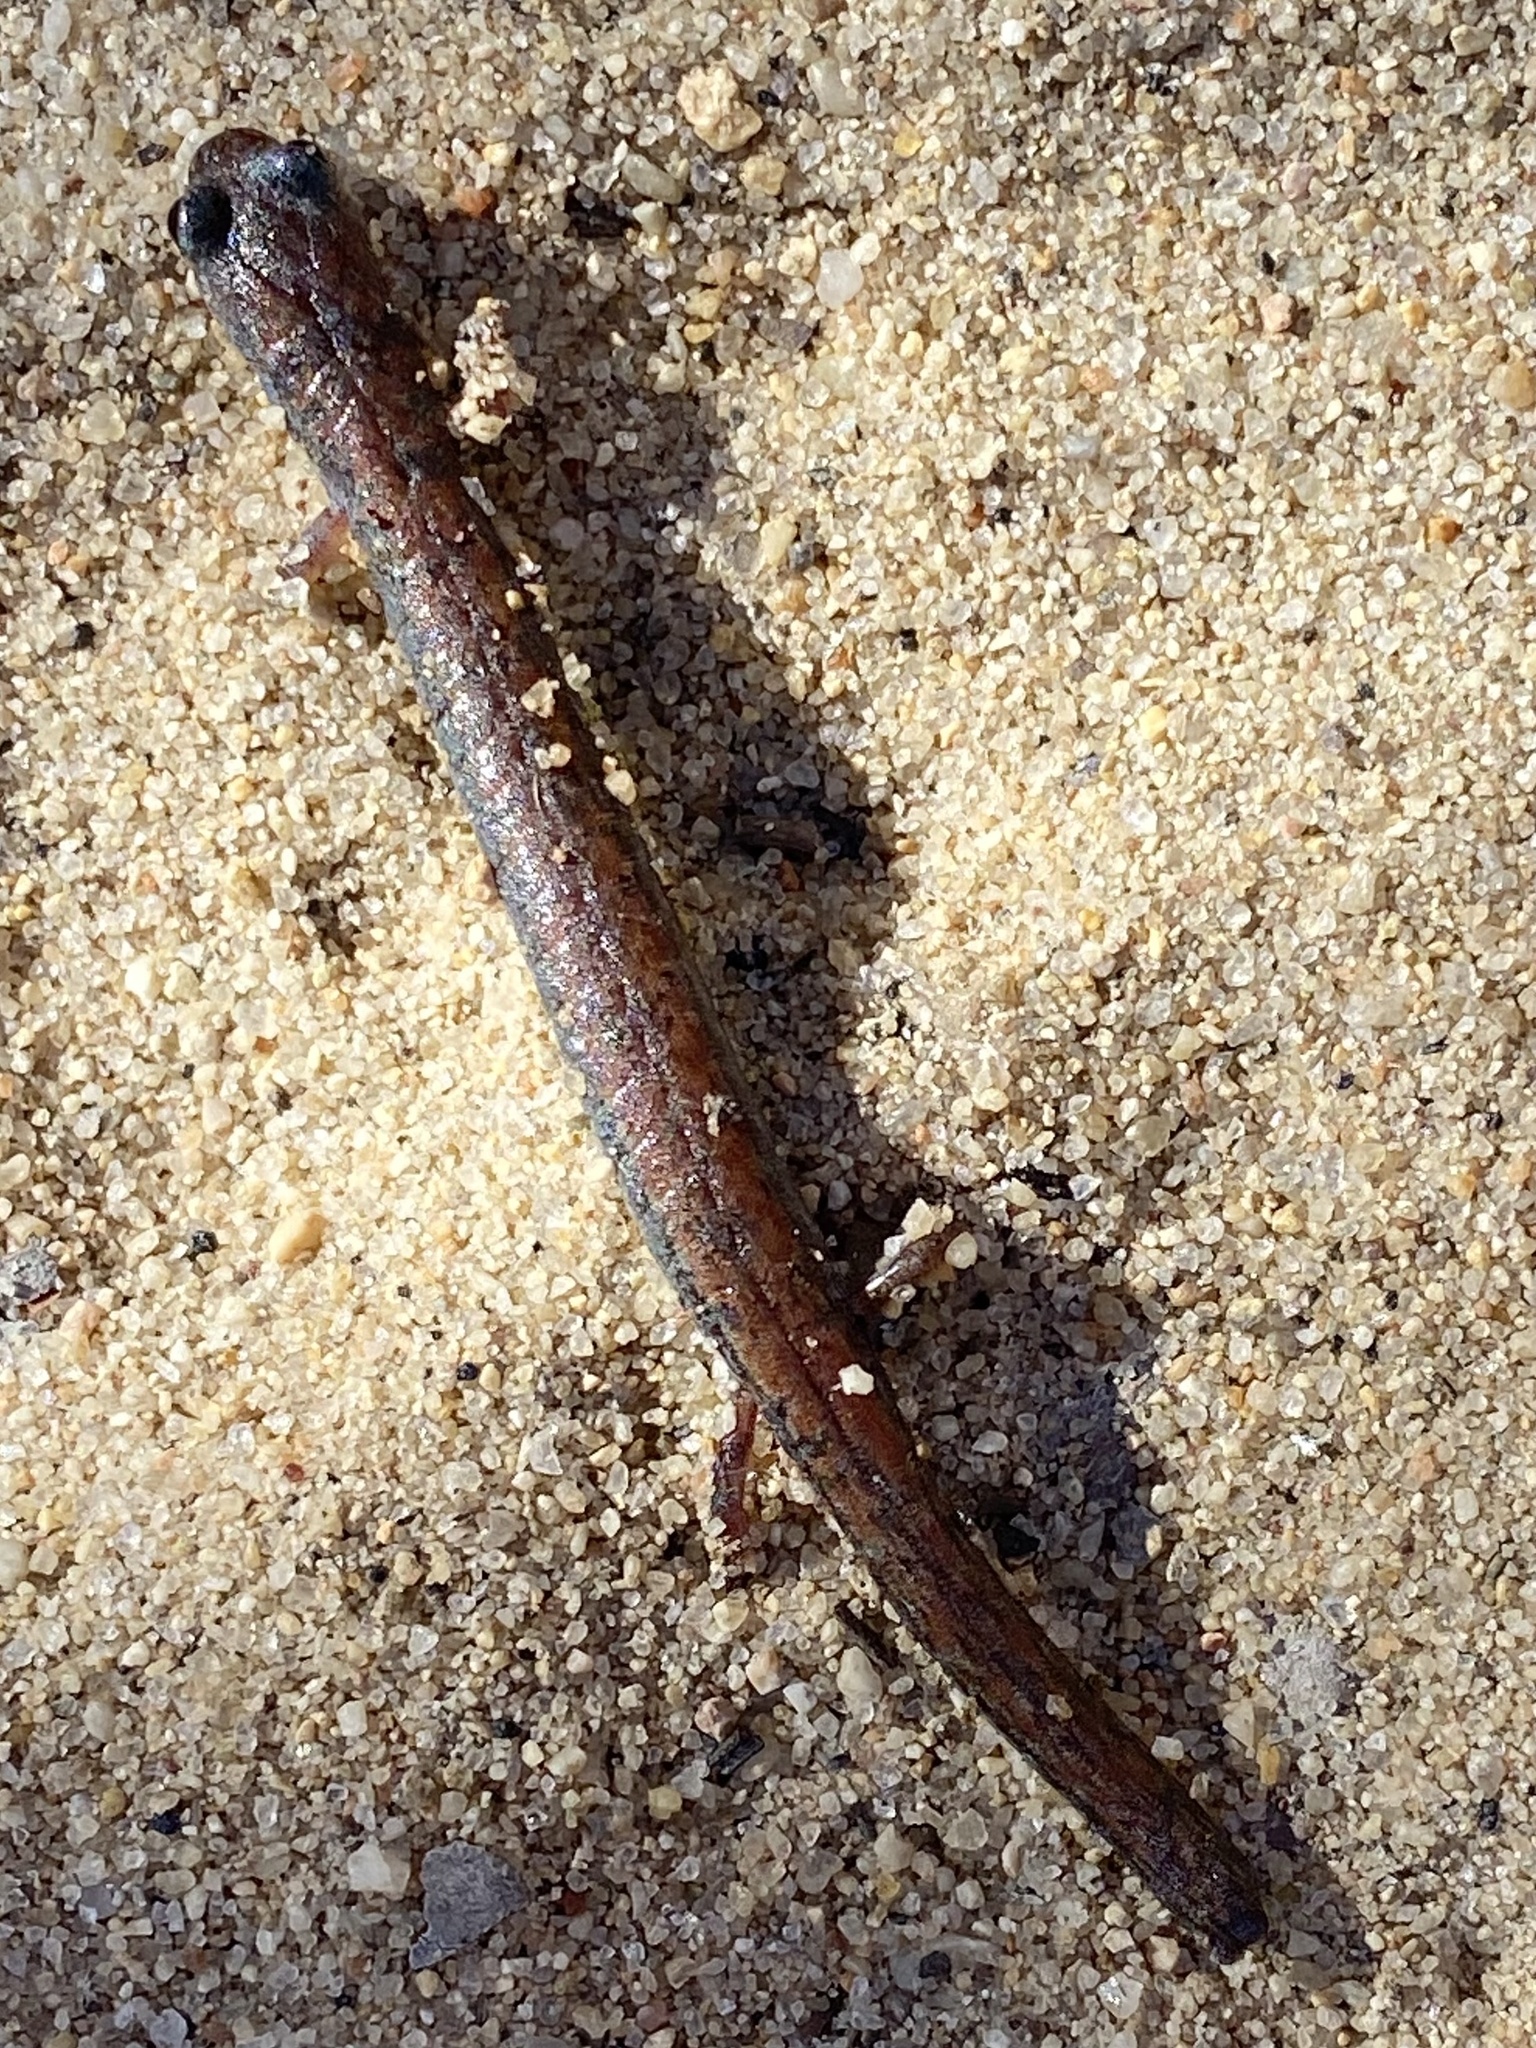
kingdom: Animalia
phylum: Chordata
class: Amphibia
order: Caudata
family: Plethodontidae
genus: Batrachoseps
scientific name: Batrachoseps major
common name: Garden slender salamander
